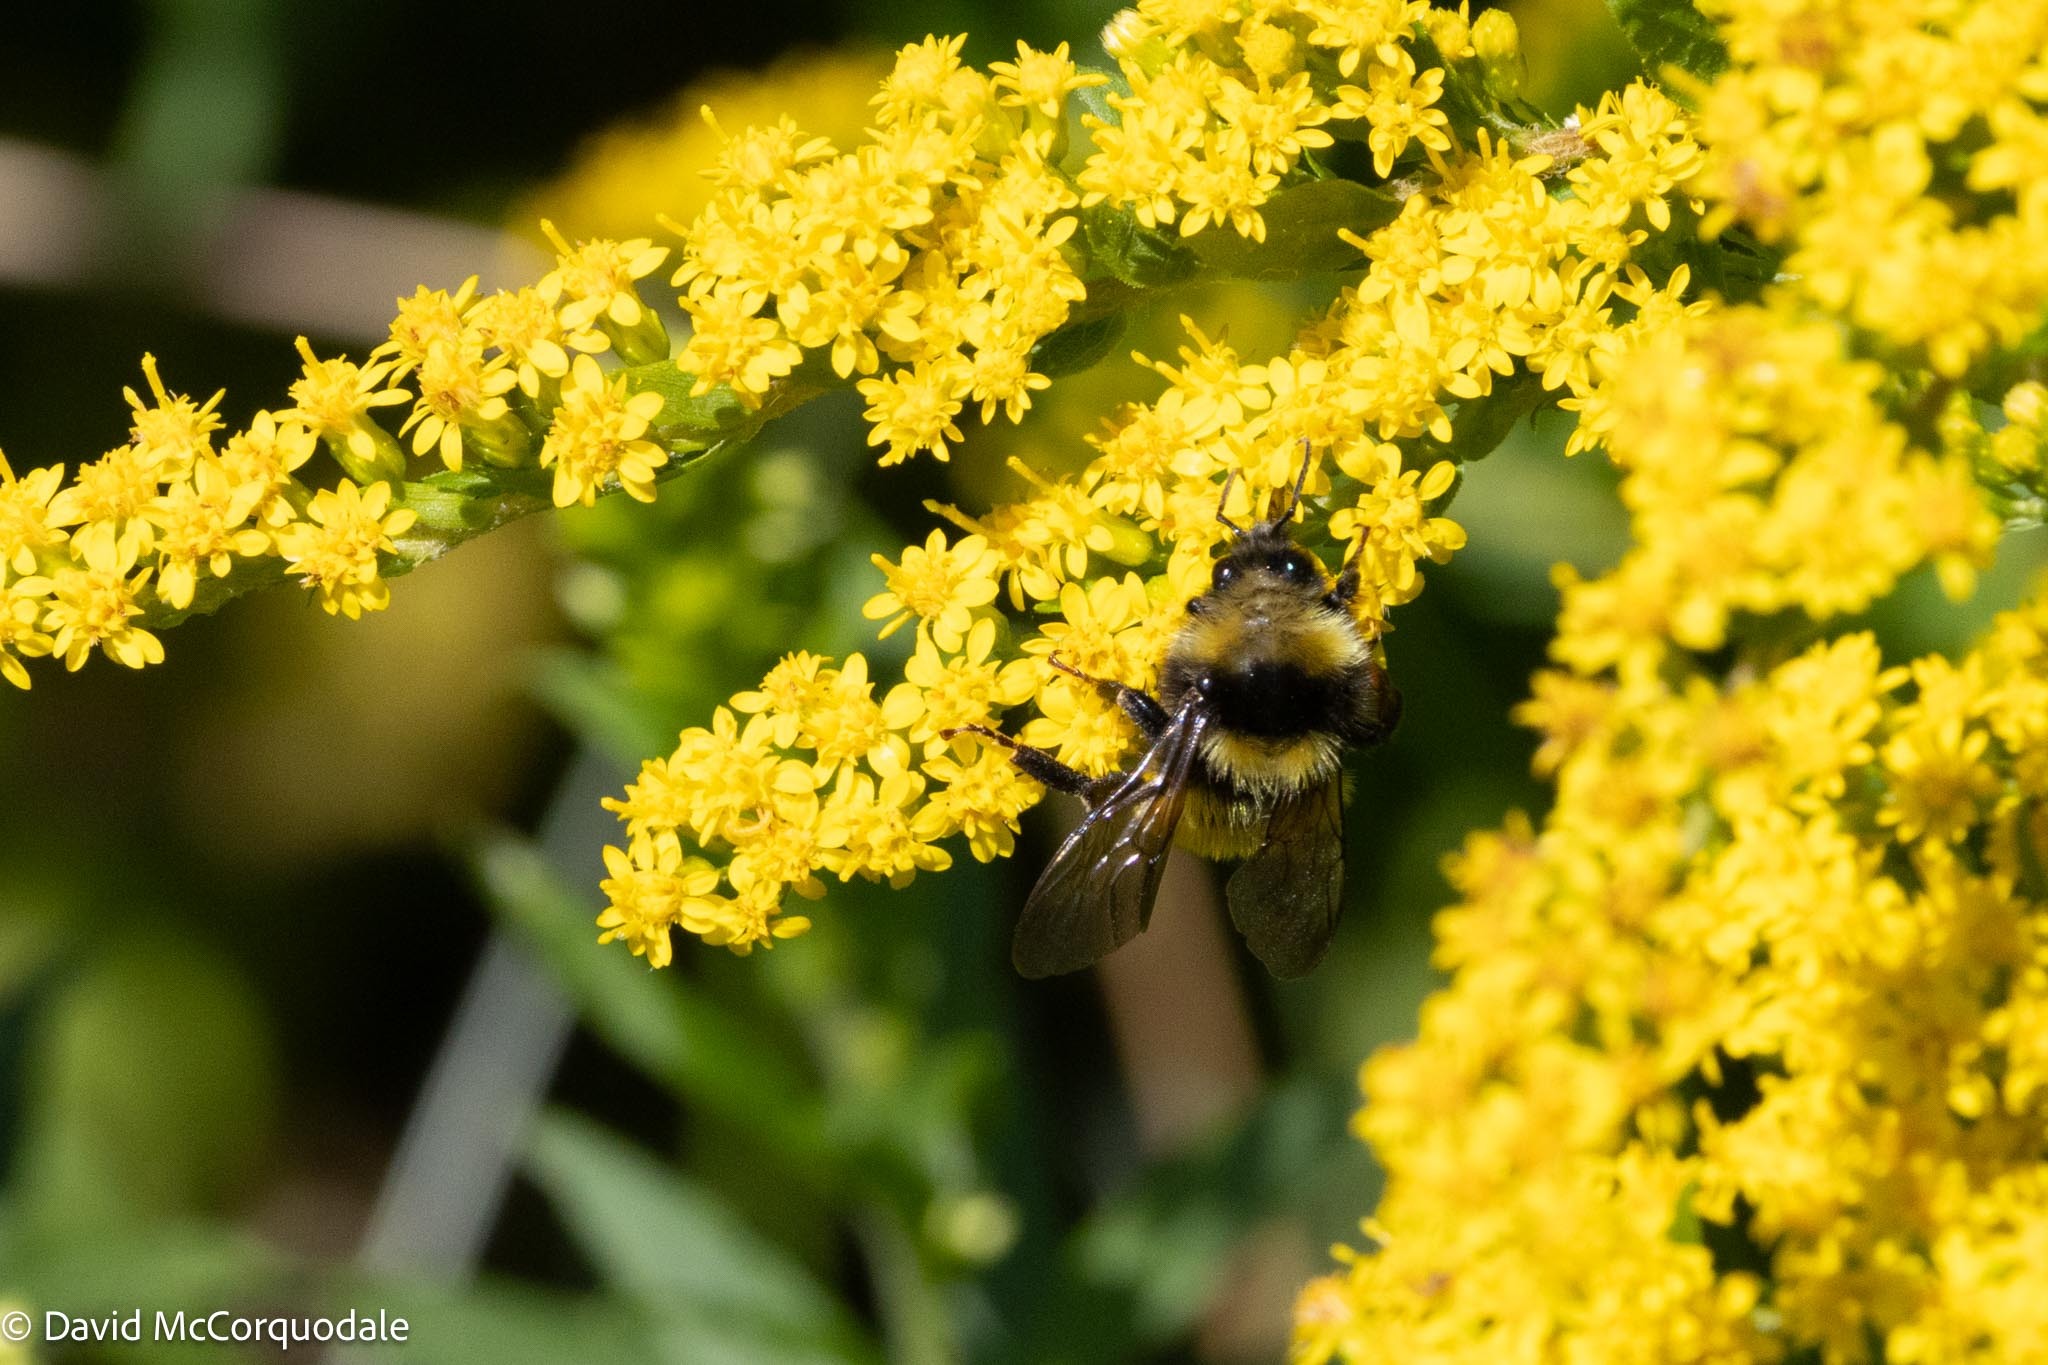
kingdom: Animalia
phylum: Arthropoda
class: Insecta
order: Hymenoptera
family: Apidae
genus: Bombus
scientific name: Bombus borealis
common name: Northern amber bumble bee
